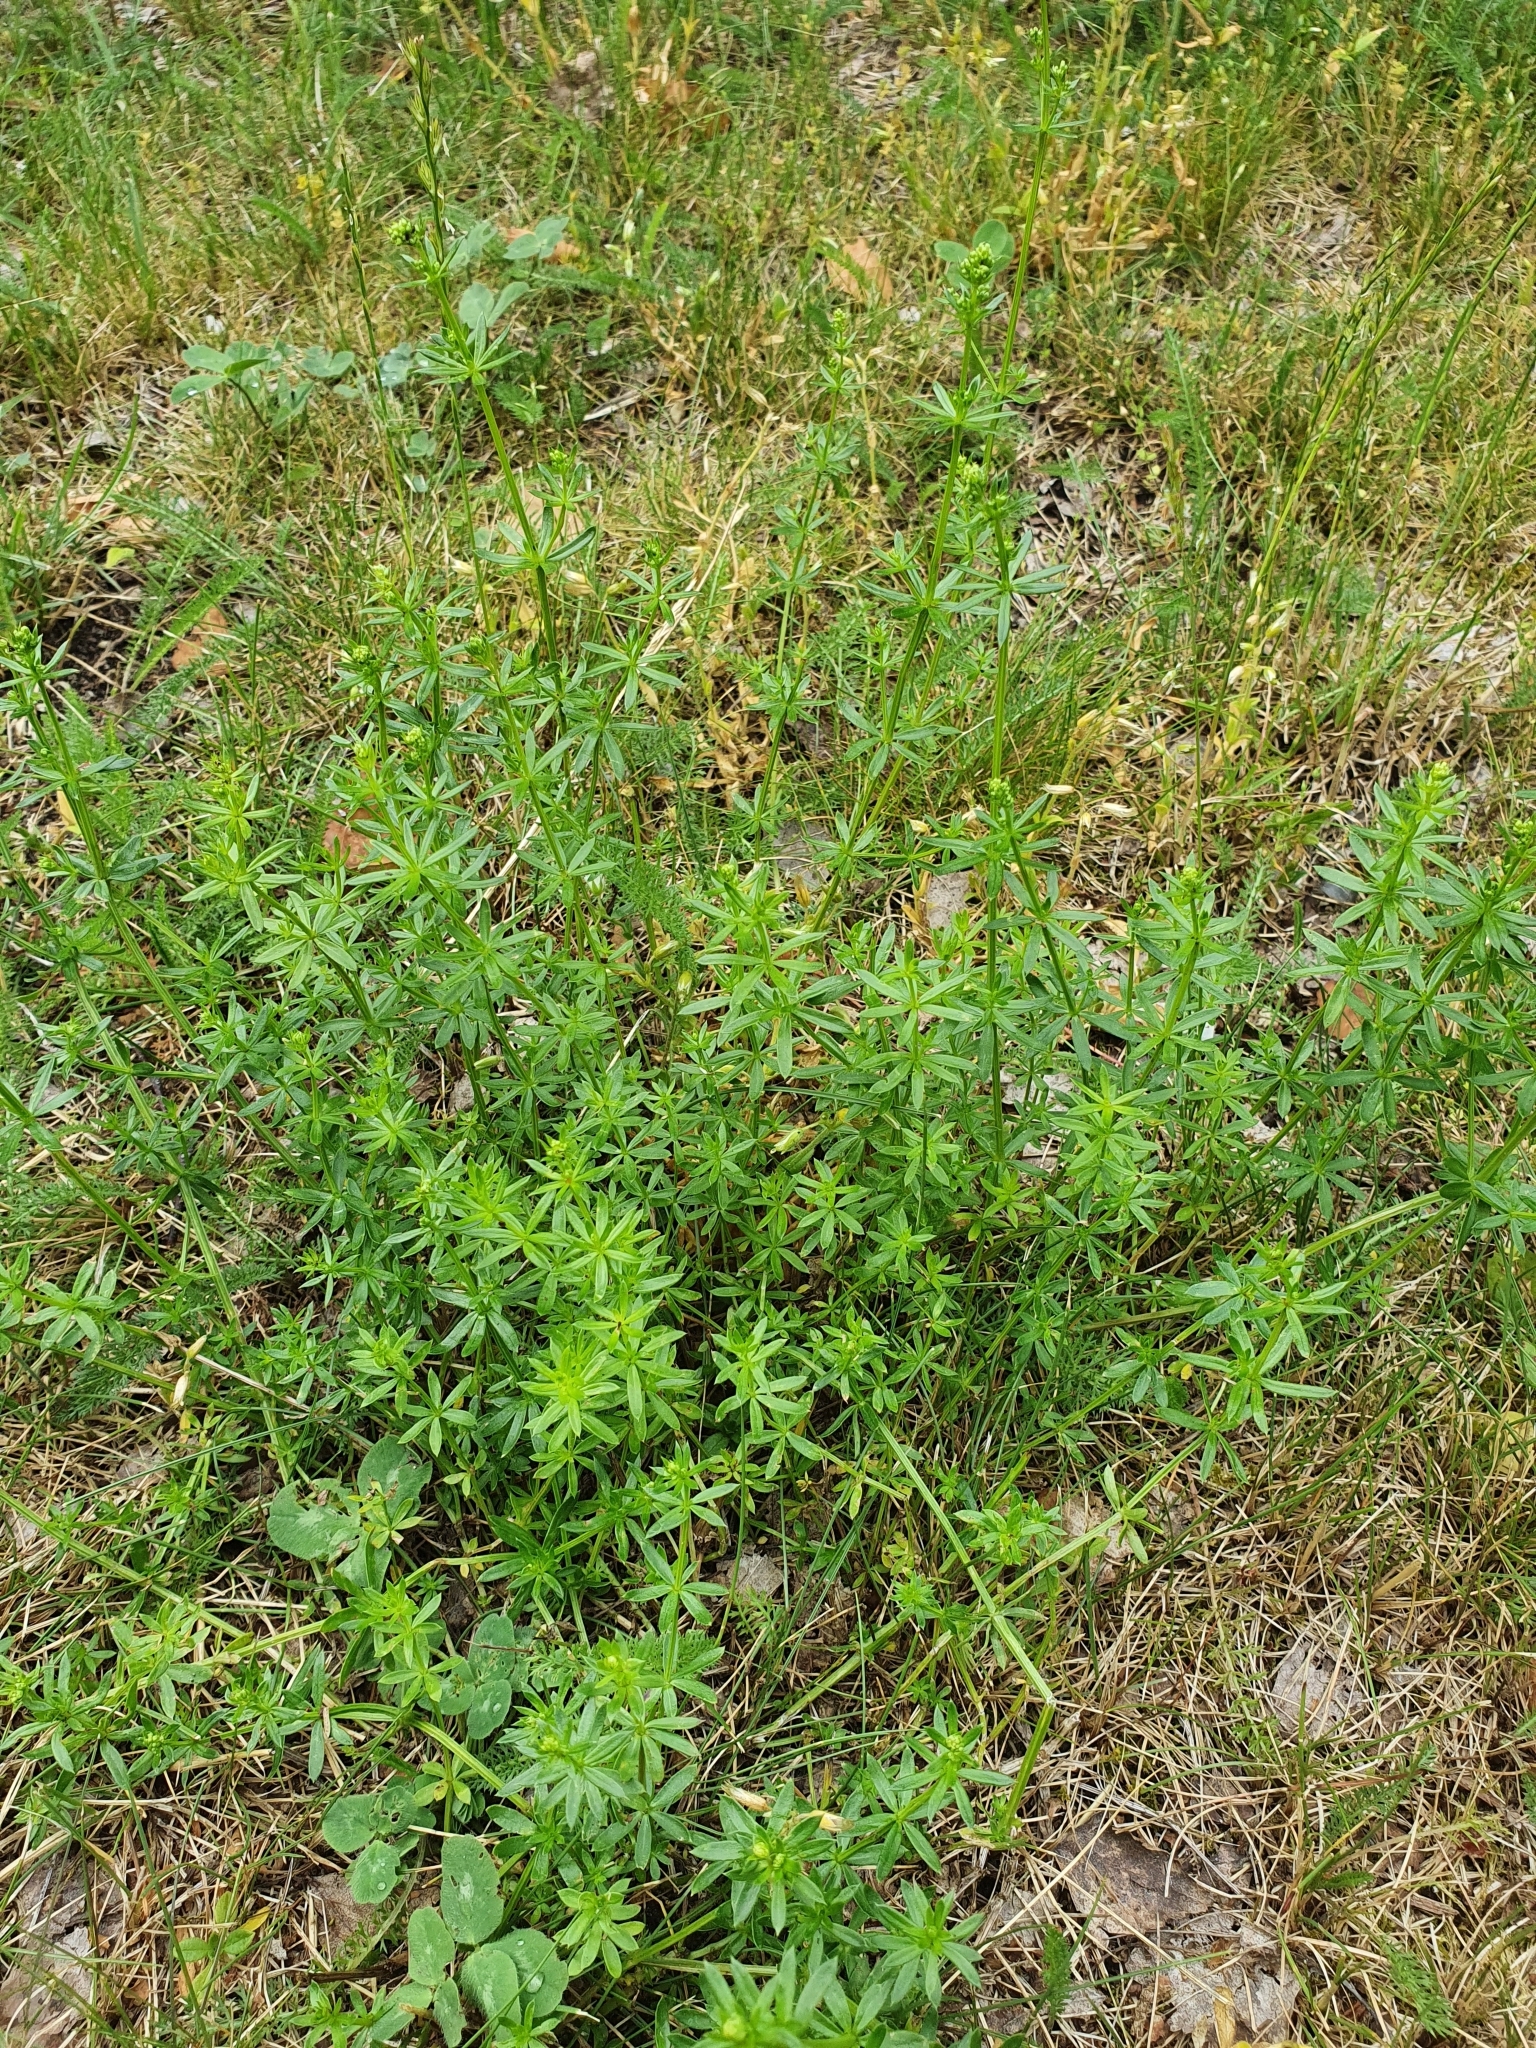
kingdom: Plantae
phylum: Tracheophyta
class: Magnoliopsida
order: Gentianales
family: Rubiaceae
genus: Galium
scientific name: Galium mollugo
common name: Hedge bedstraw
